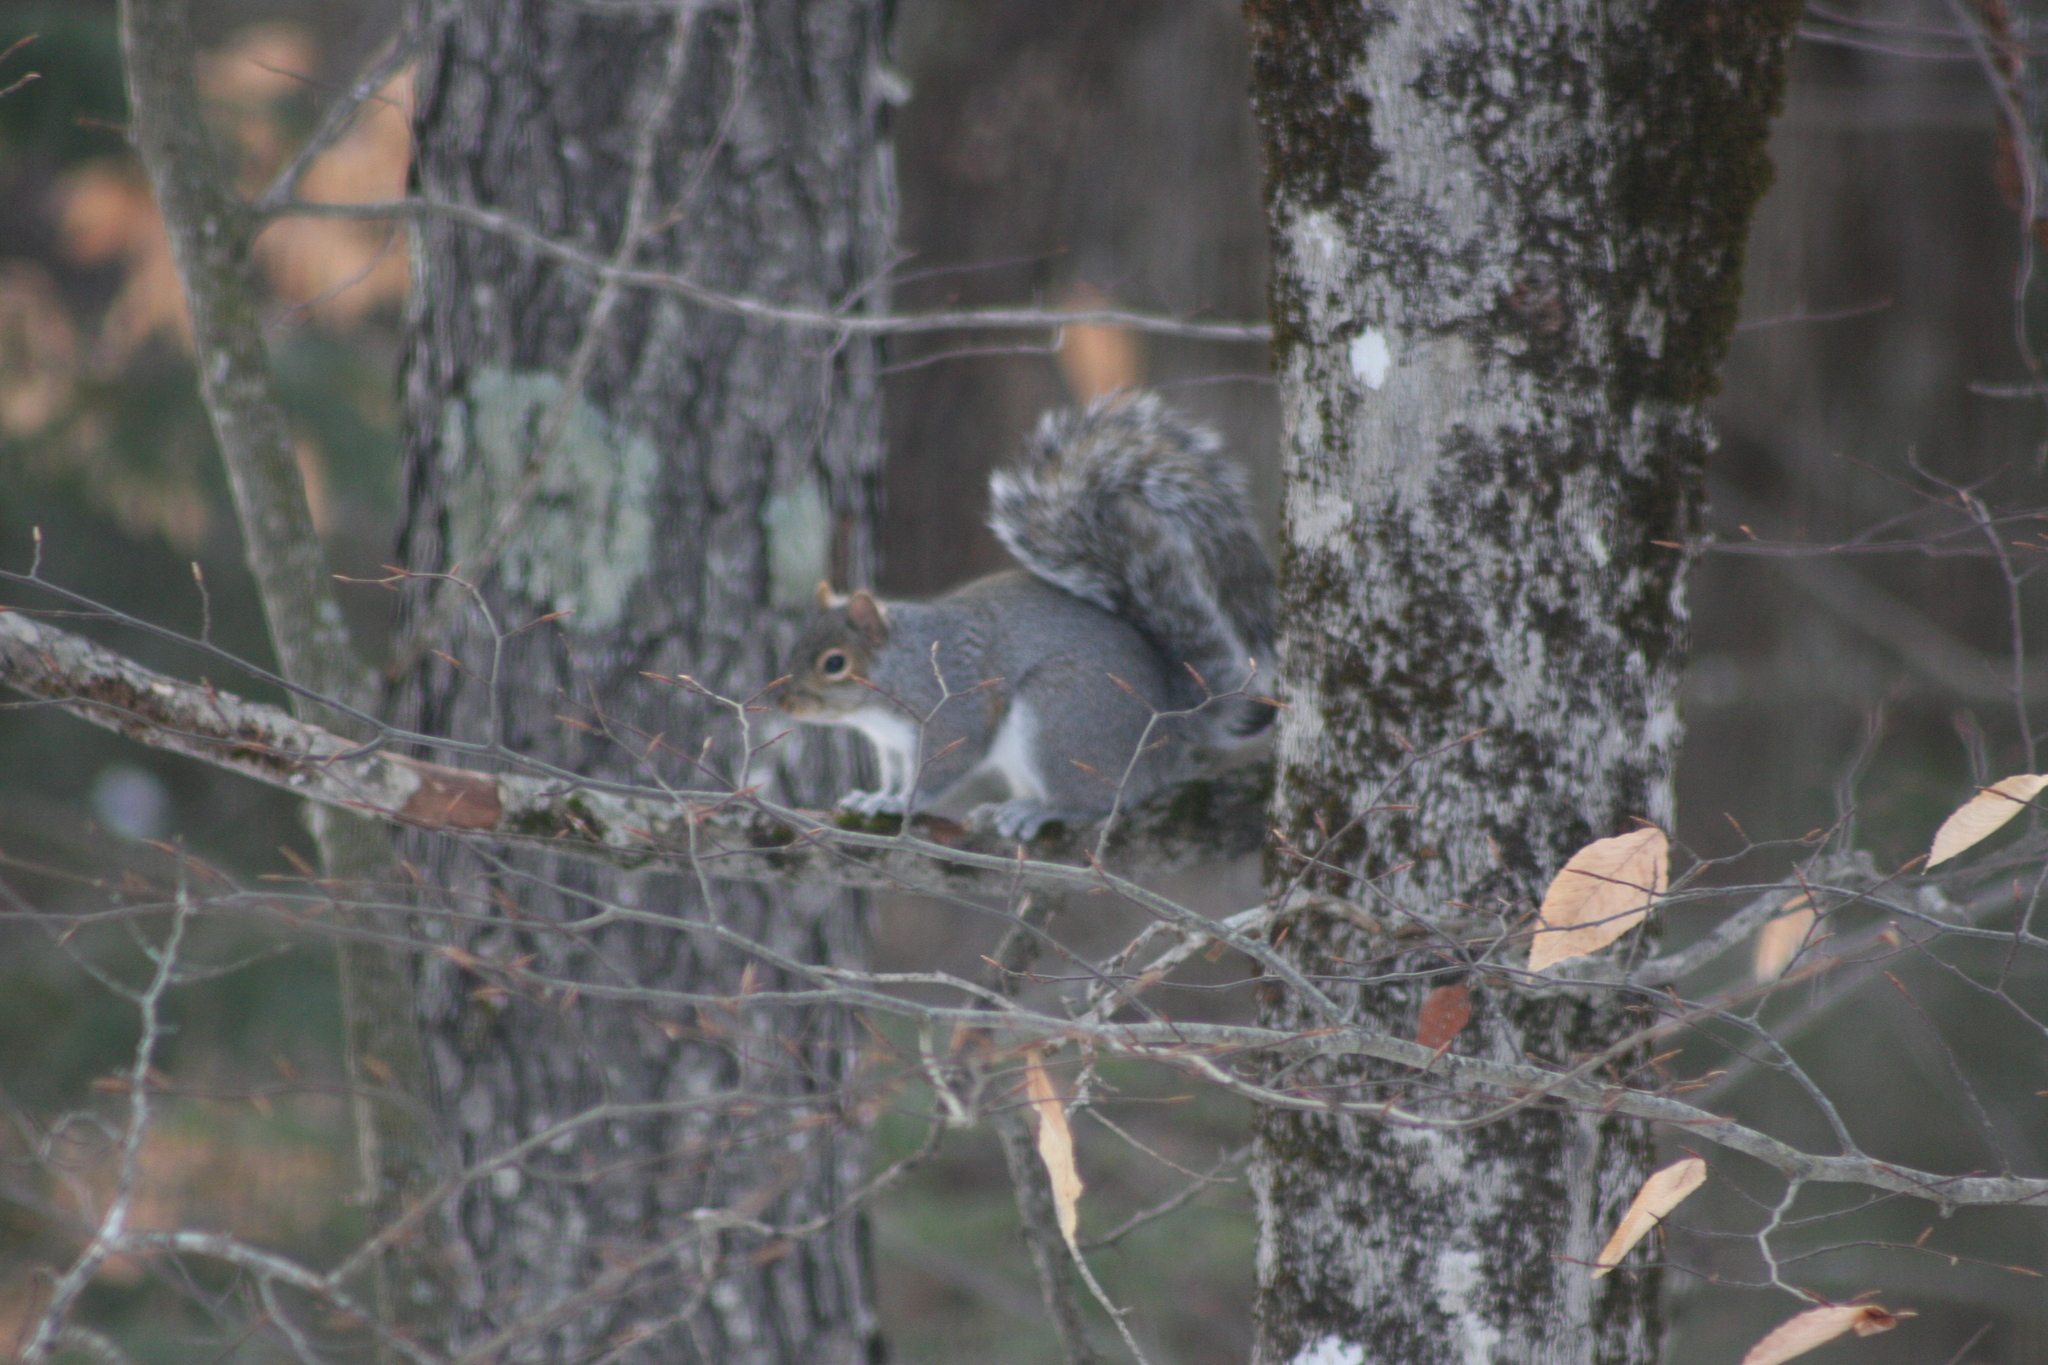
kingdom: Animalia
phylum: Chordata
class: Mammalia
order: Rodentia
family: Sciuridae
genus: Sciurus
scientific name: Sciurus carolinensis
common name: Eastern gray squirrel
